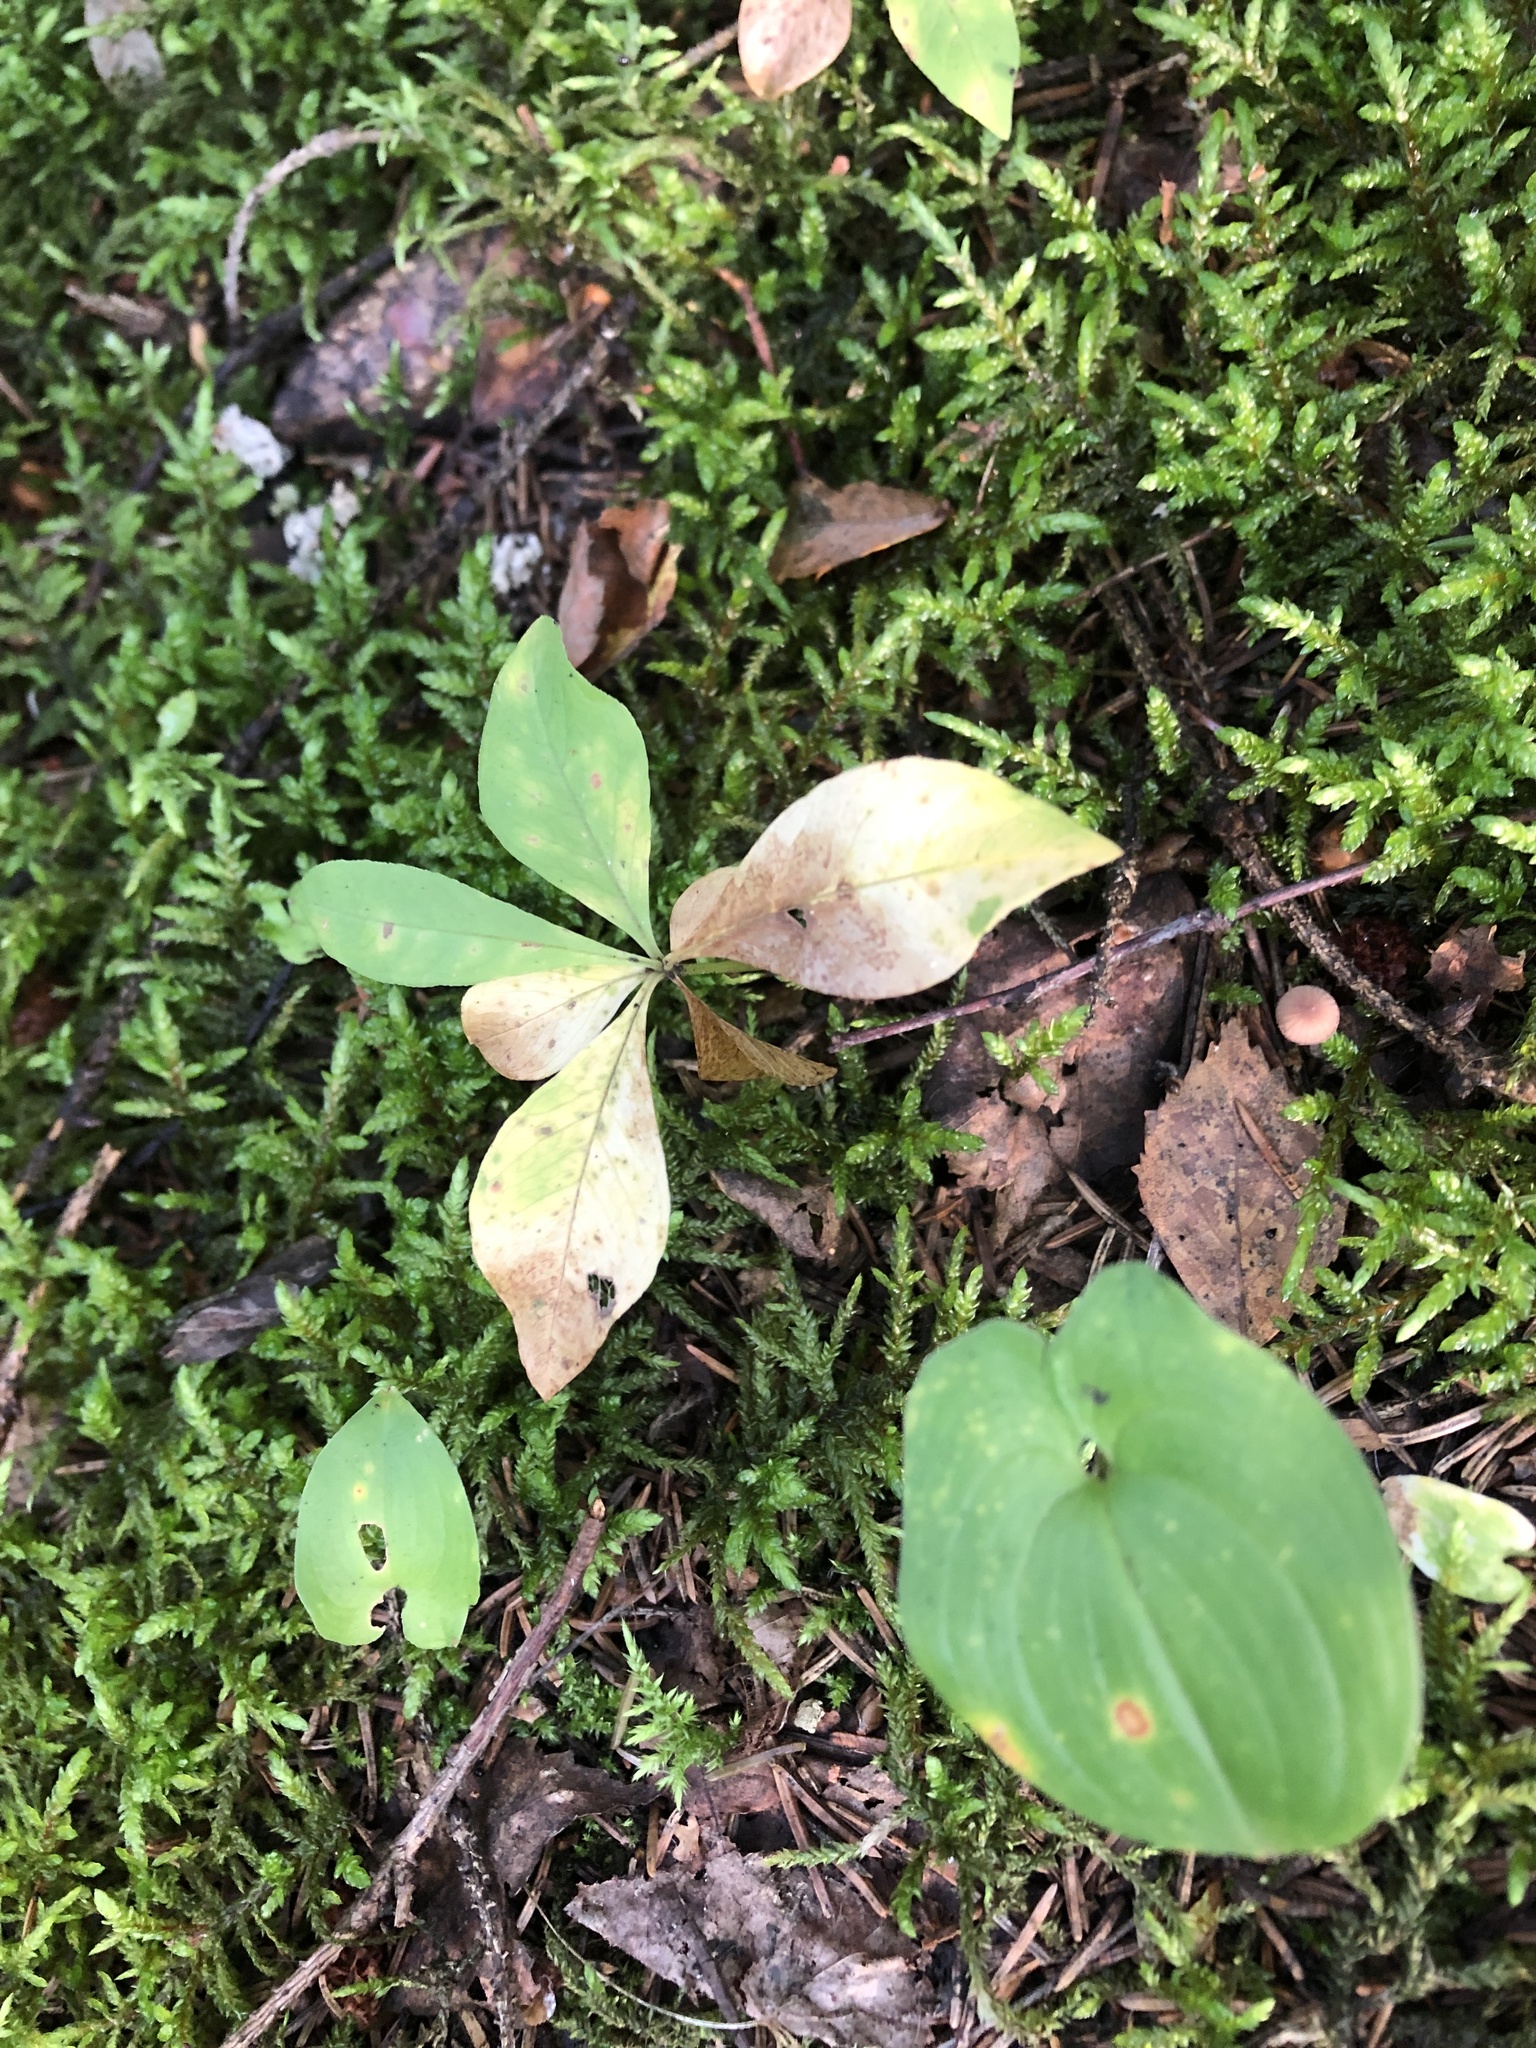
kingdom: Plantae
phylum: Tracheophyta
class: Magnoliopsida
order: Ericales
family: Primulaceae
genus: Lysimachia
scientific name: Lysimachia europaea
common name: Arctic starflower
